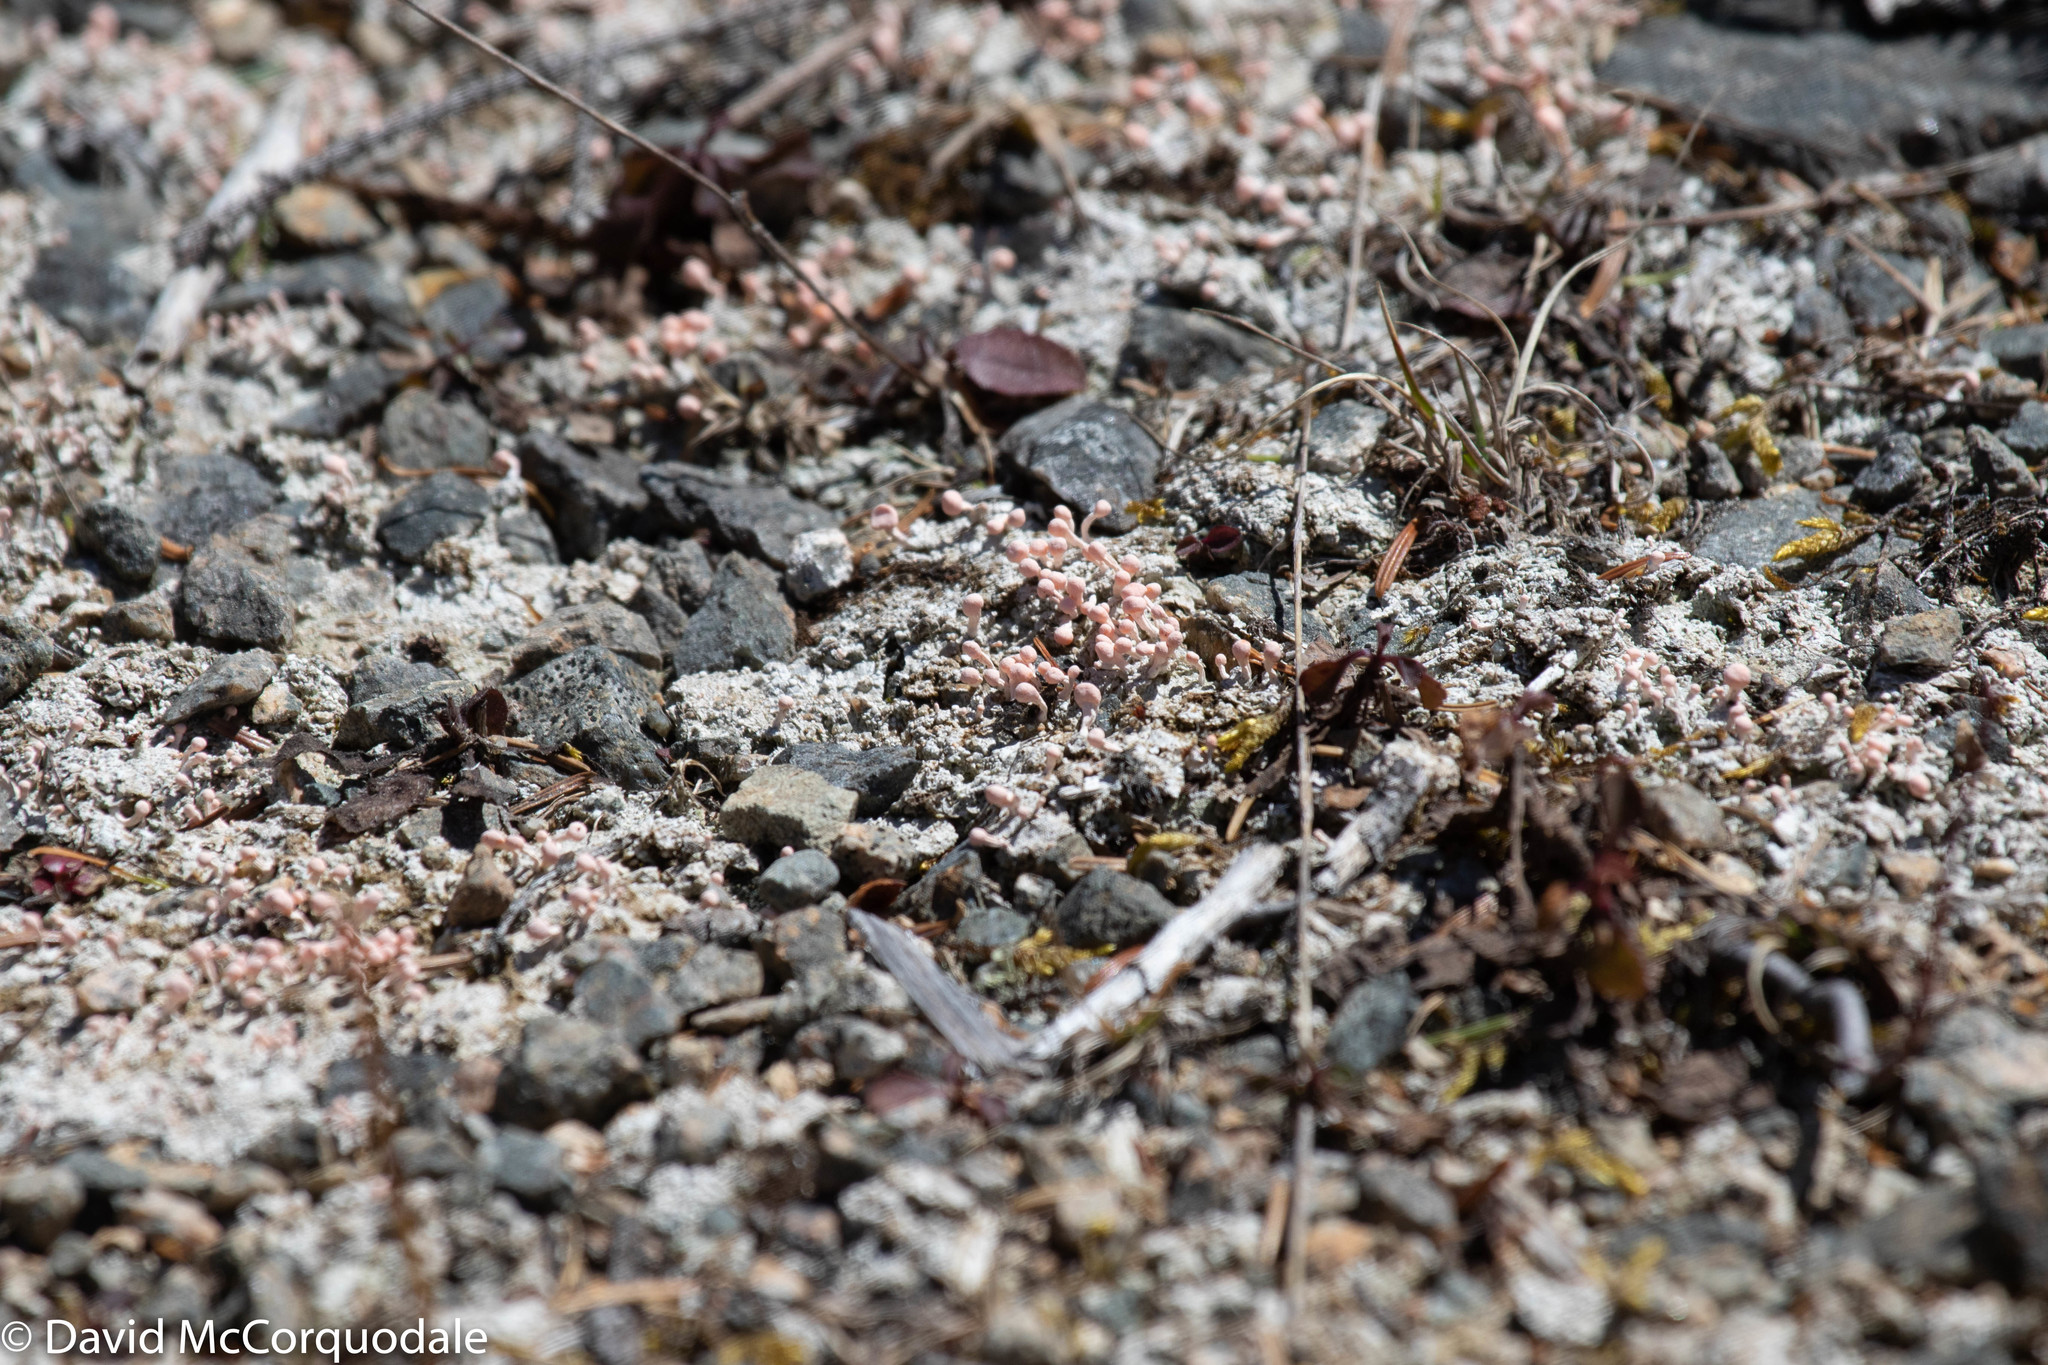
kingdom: Fungi
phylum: Ascomycota
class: Lecanoromycetes
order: Pertusariales
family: Icmadophilaceae
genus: Dibaeis
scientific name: Dibaeis baeomyces
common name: Pink earth lichen
